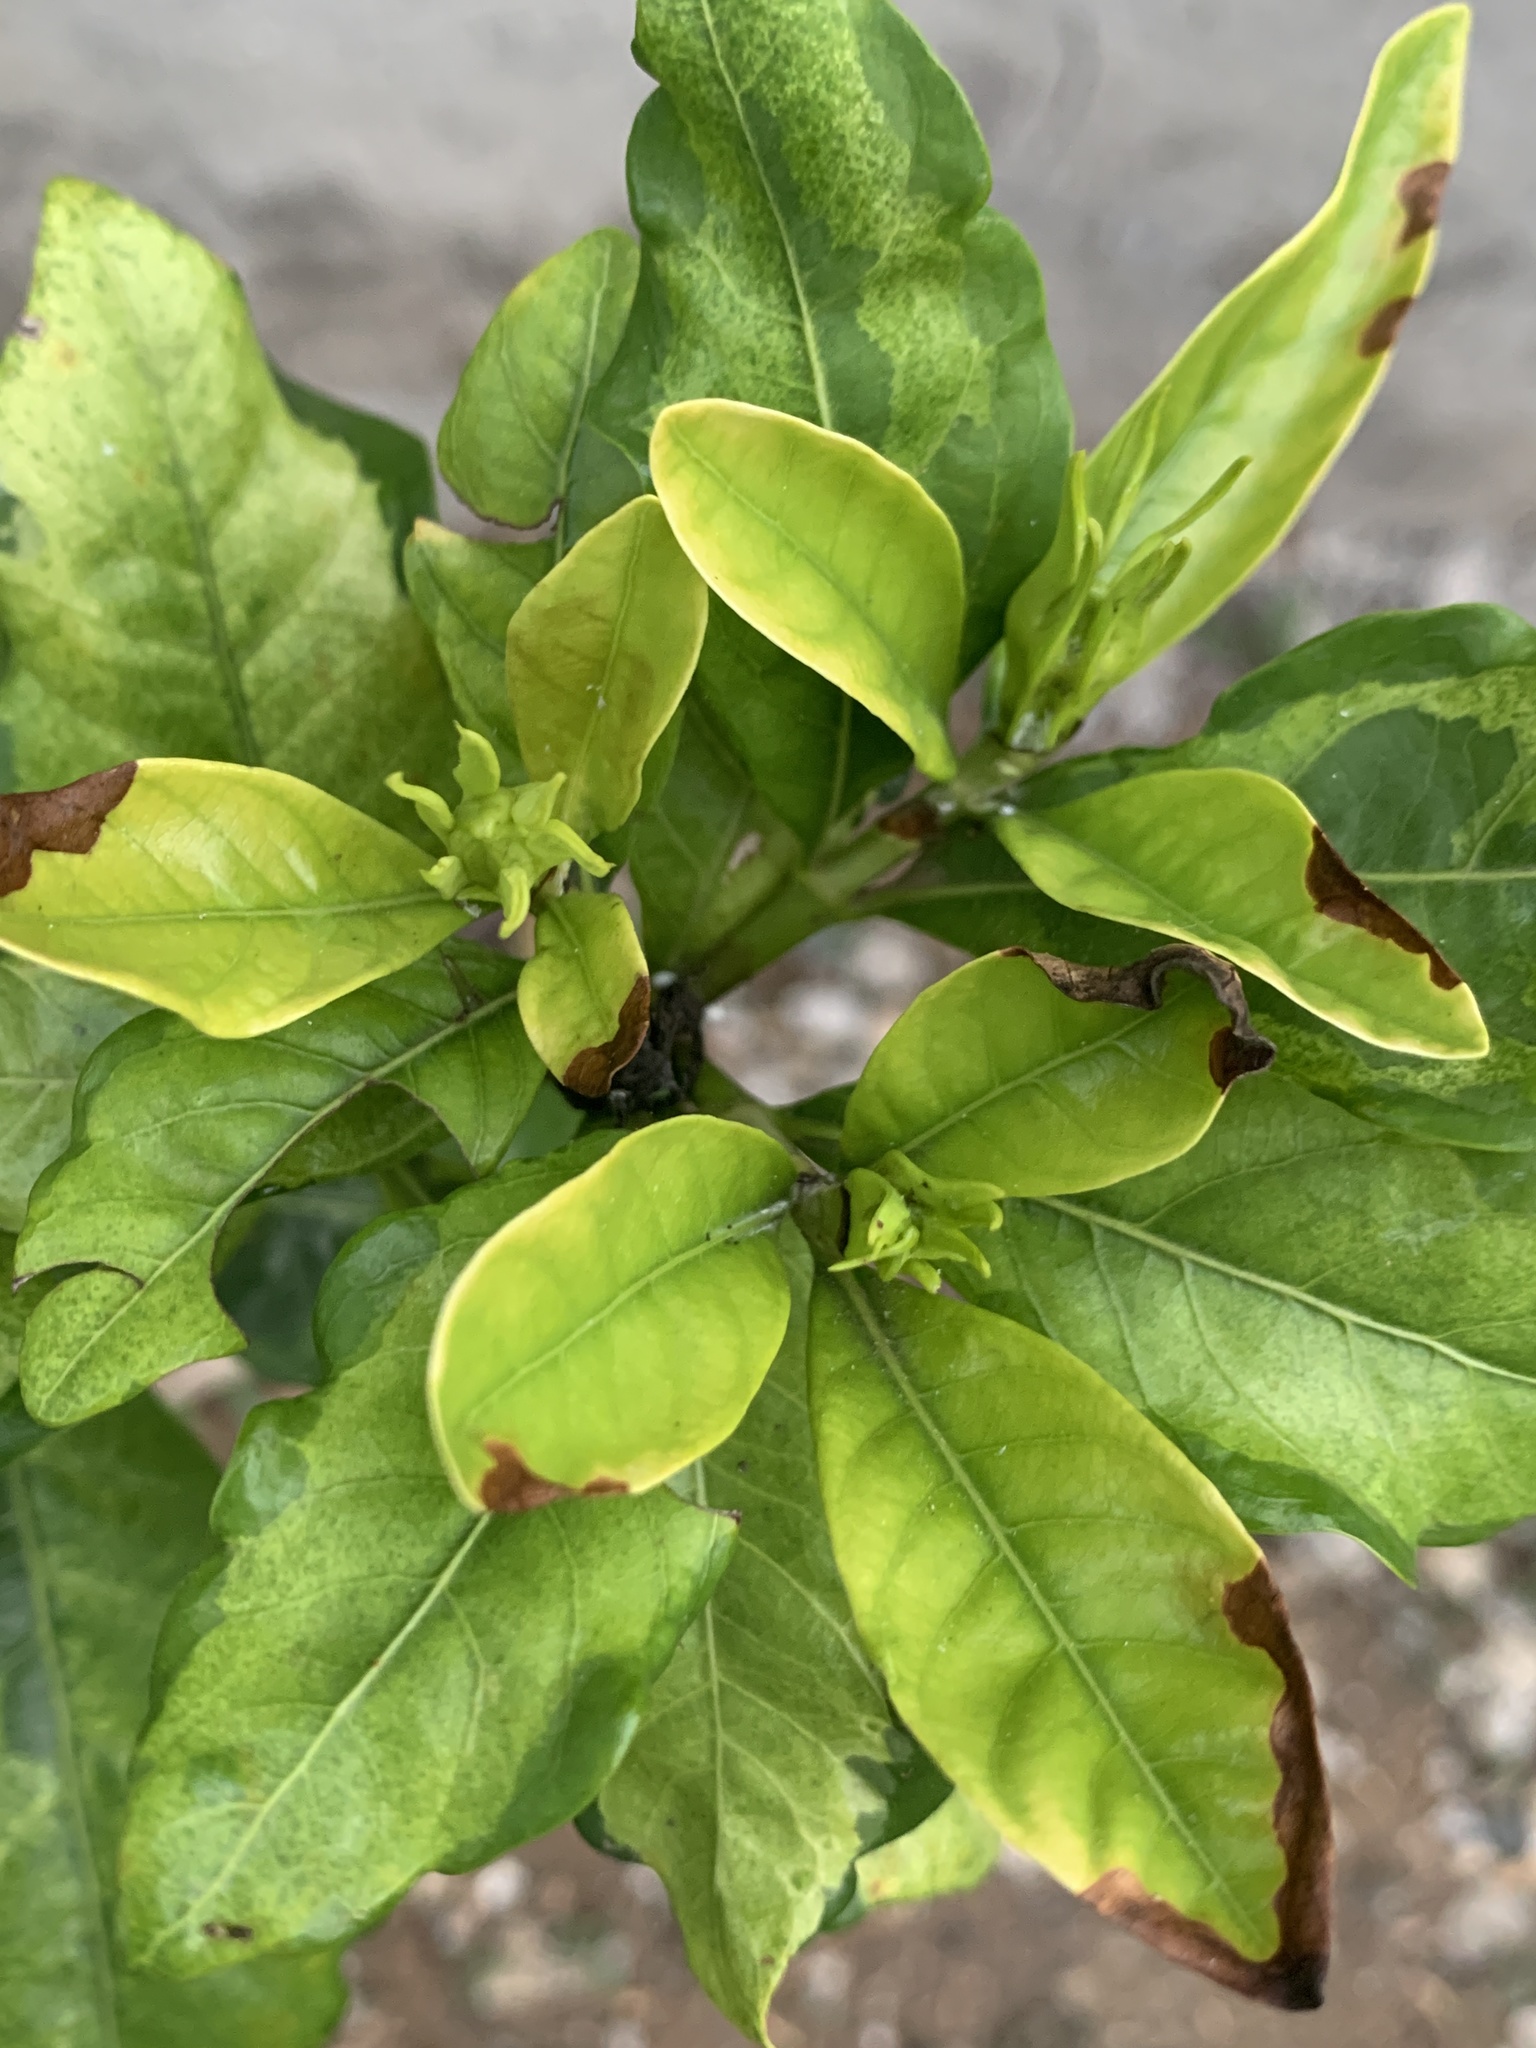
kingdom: Plantae
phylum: Tracheophyta
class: Magnoliopsida
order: Gentianales
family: Rubiaceae
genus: Gardenia
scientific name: Gardenia jasminoides
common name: Cape-jasmine
